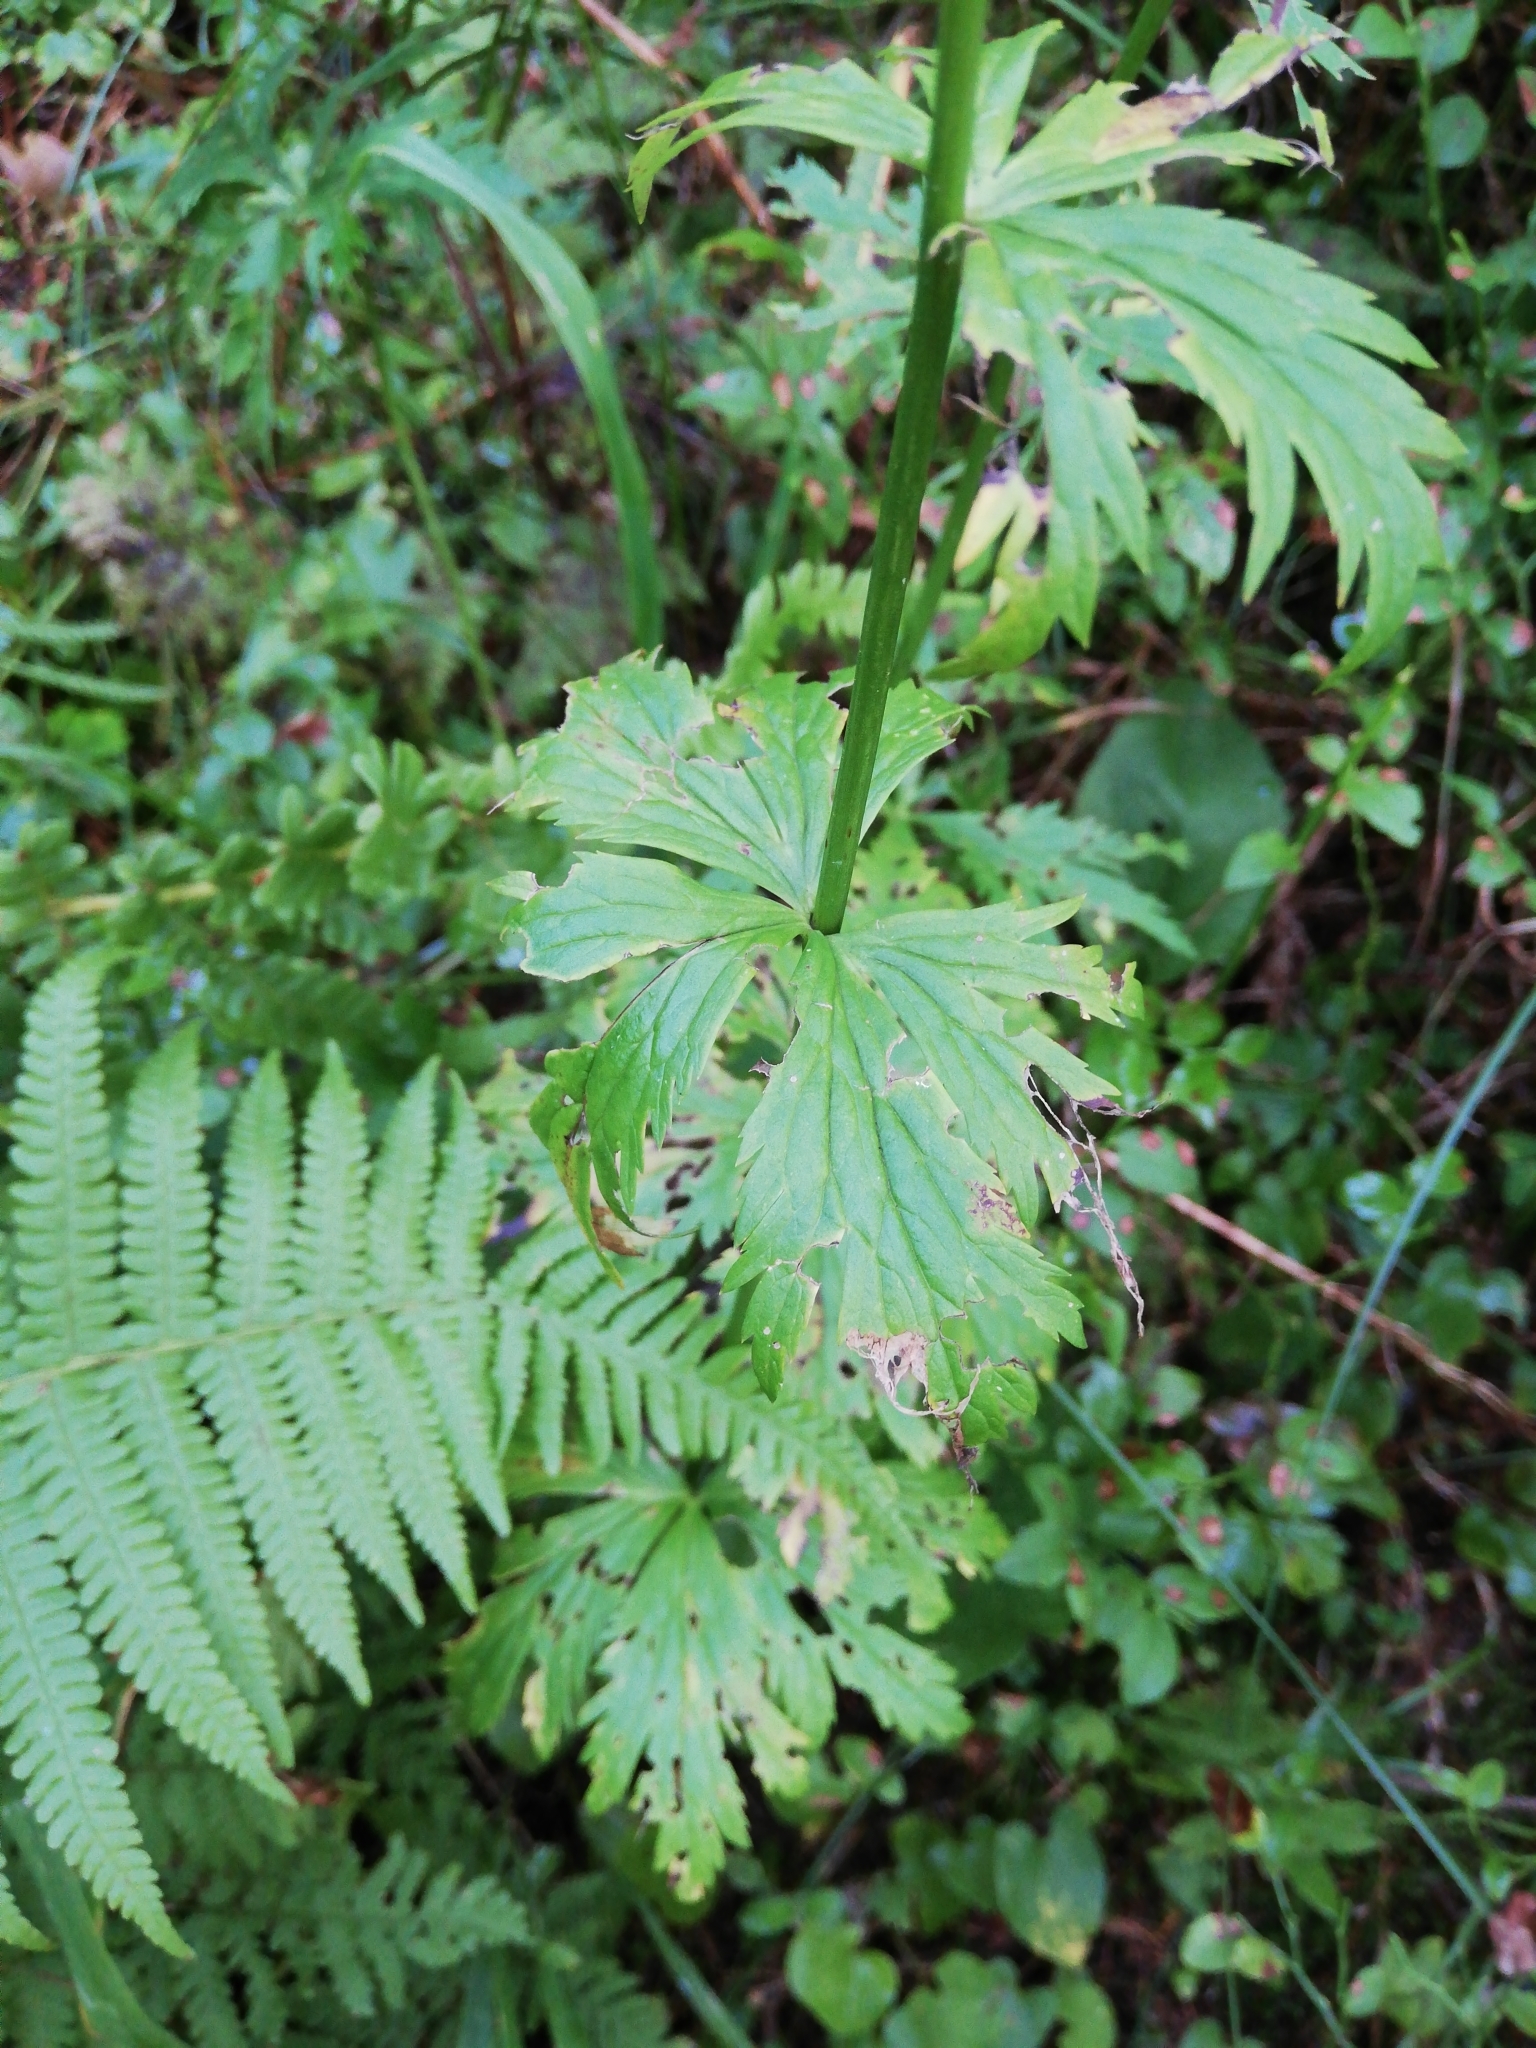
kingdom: Plantae
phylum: Tracheophyta
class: Magnoliopsida
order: Ranunculales
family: Ranunculaceae
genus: Trollius
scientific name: Trollius asiaticus
